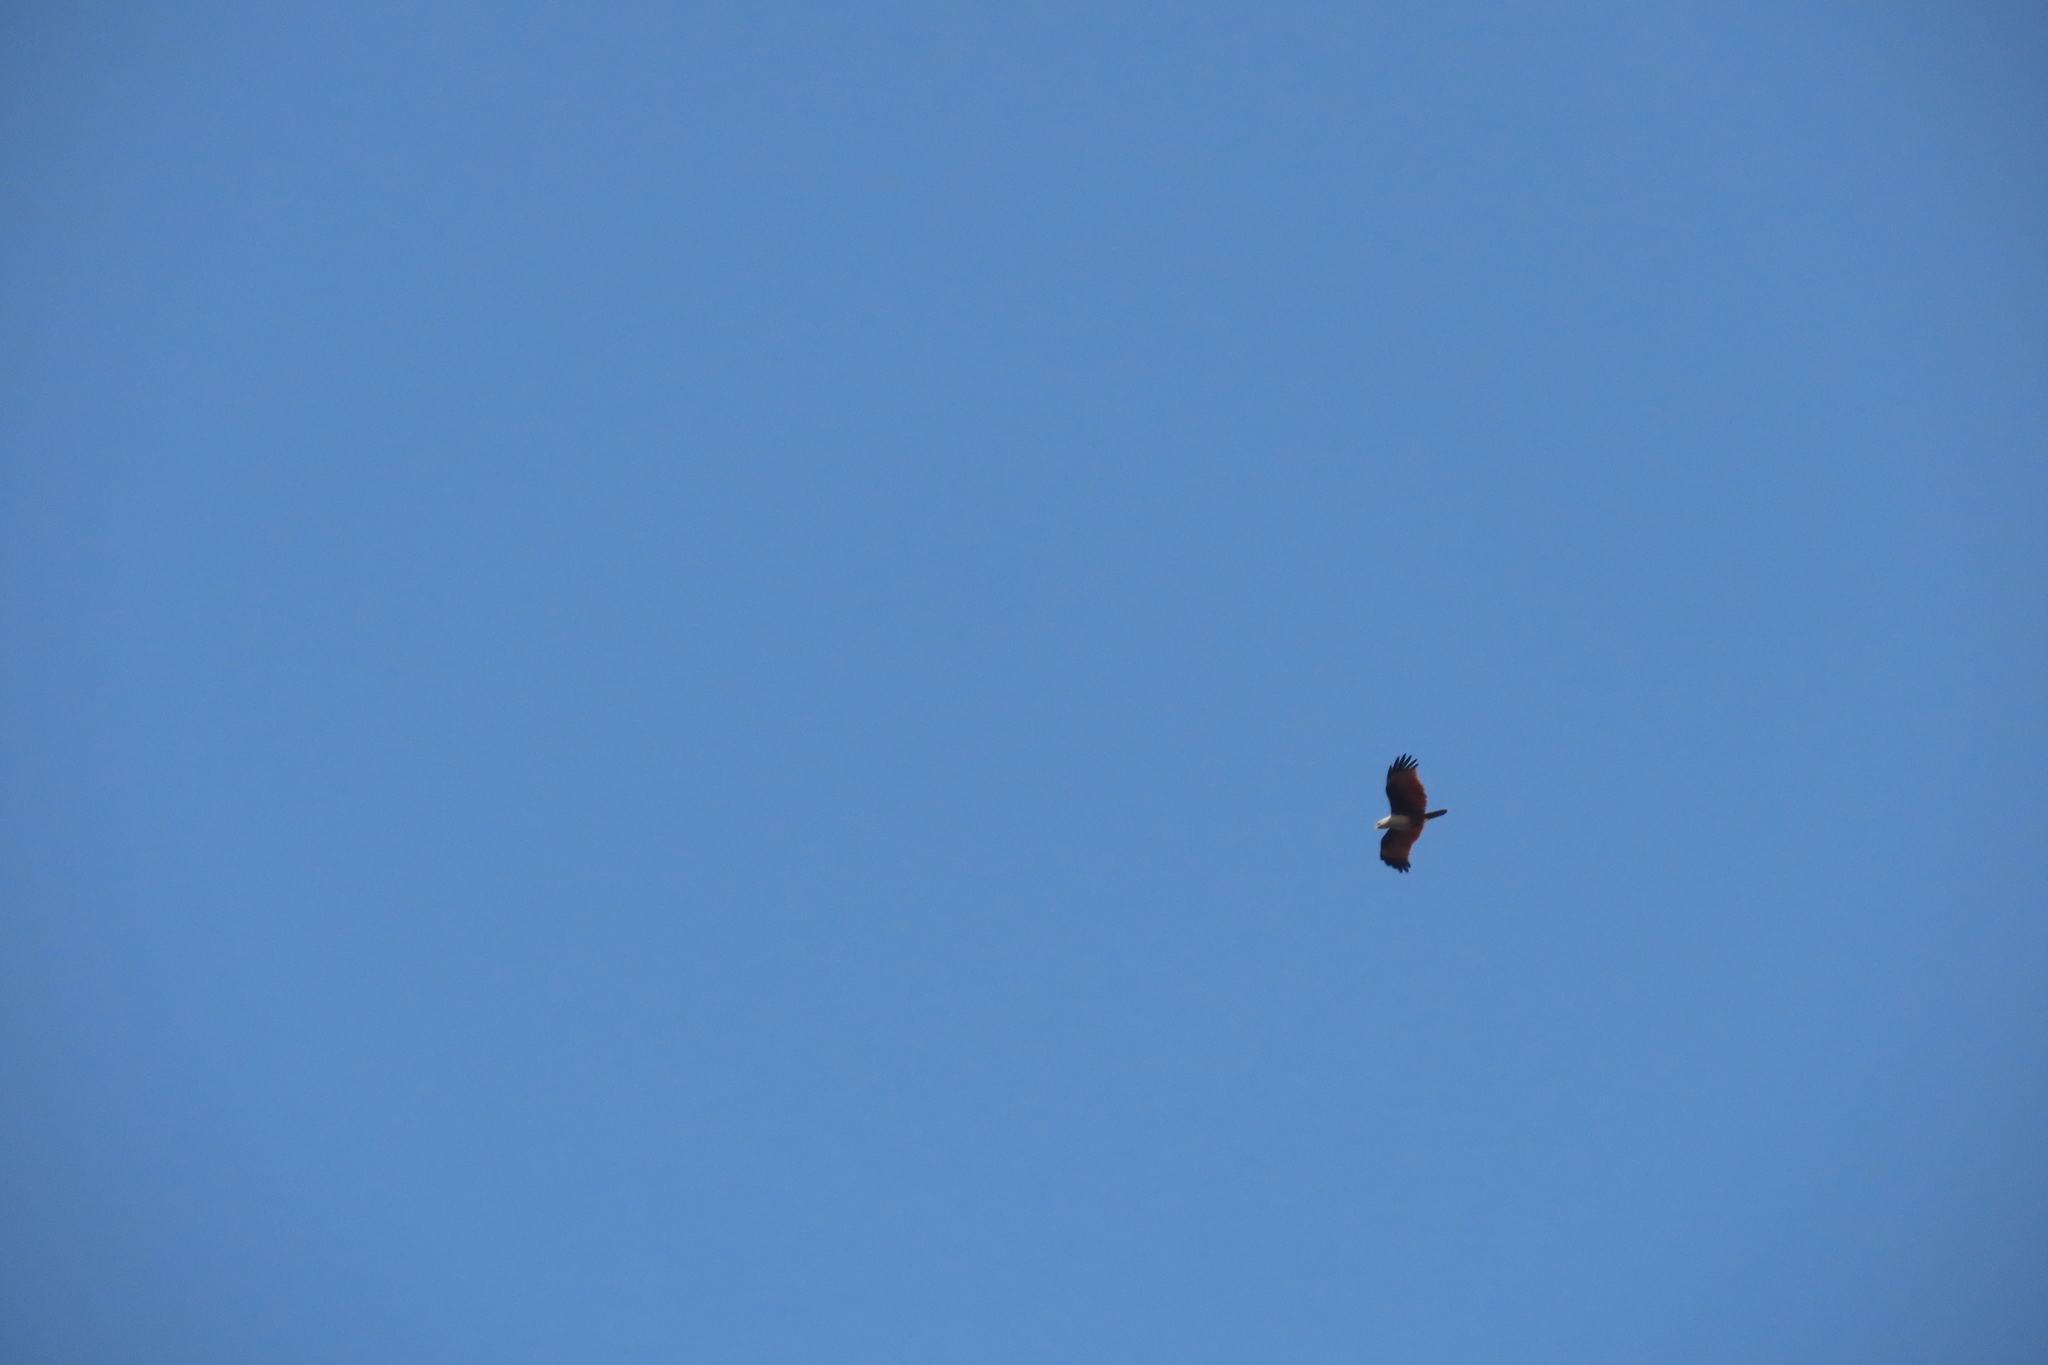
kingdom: Animalia
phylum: Chordata
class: Aves
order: Accipitriformes
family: Accipitridae
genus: Haliastur
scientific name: Haliastur indus
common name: Brahminy kite
